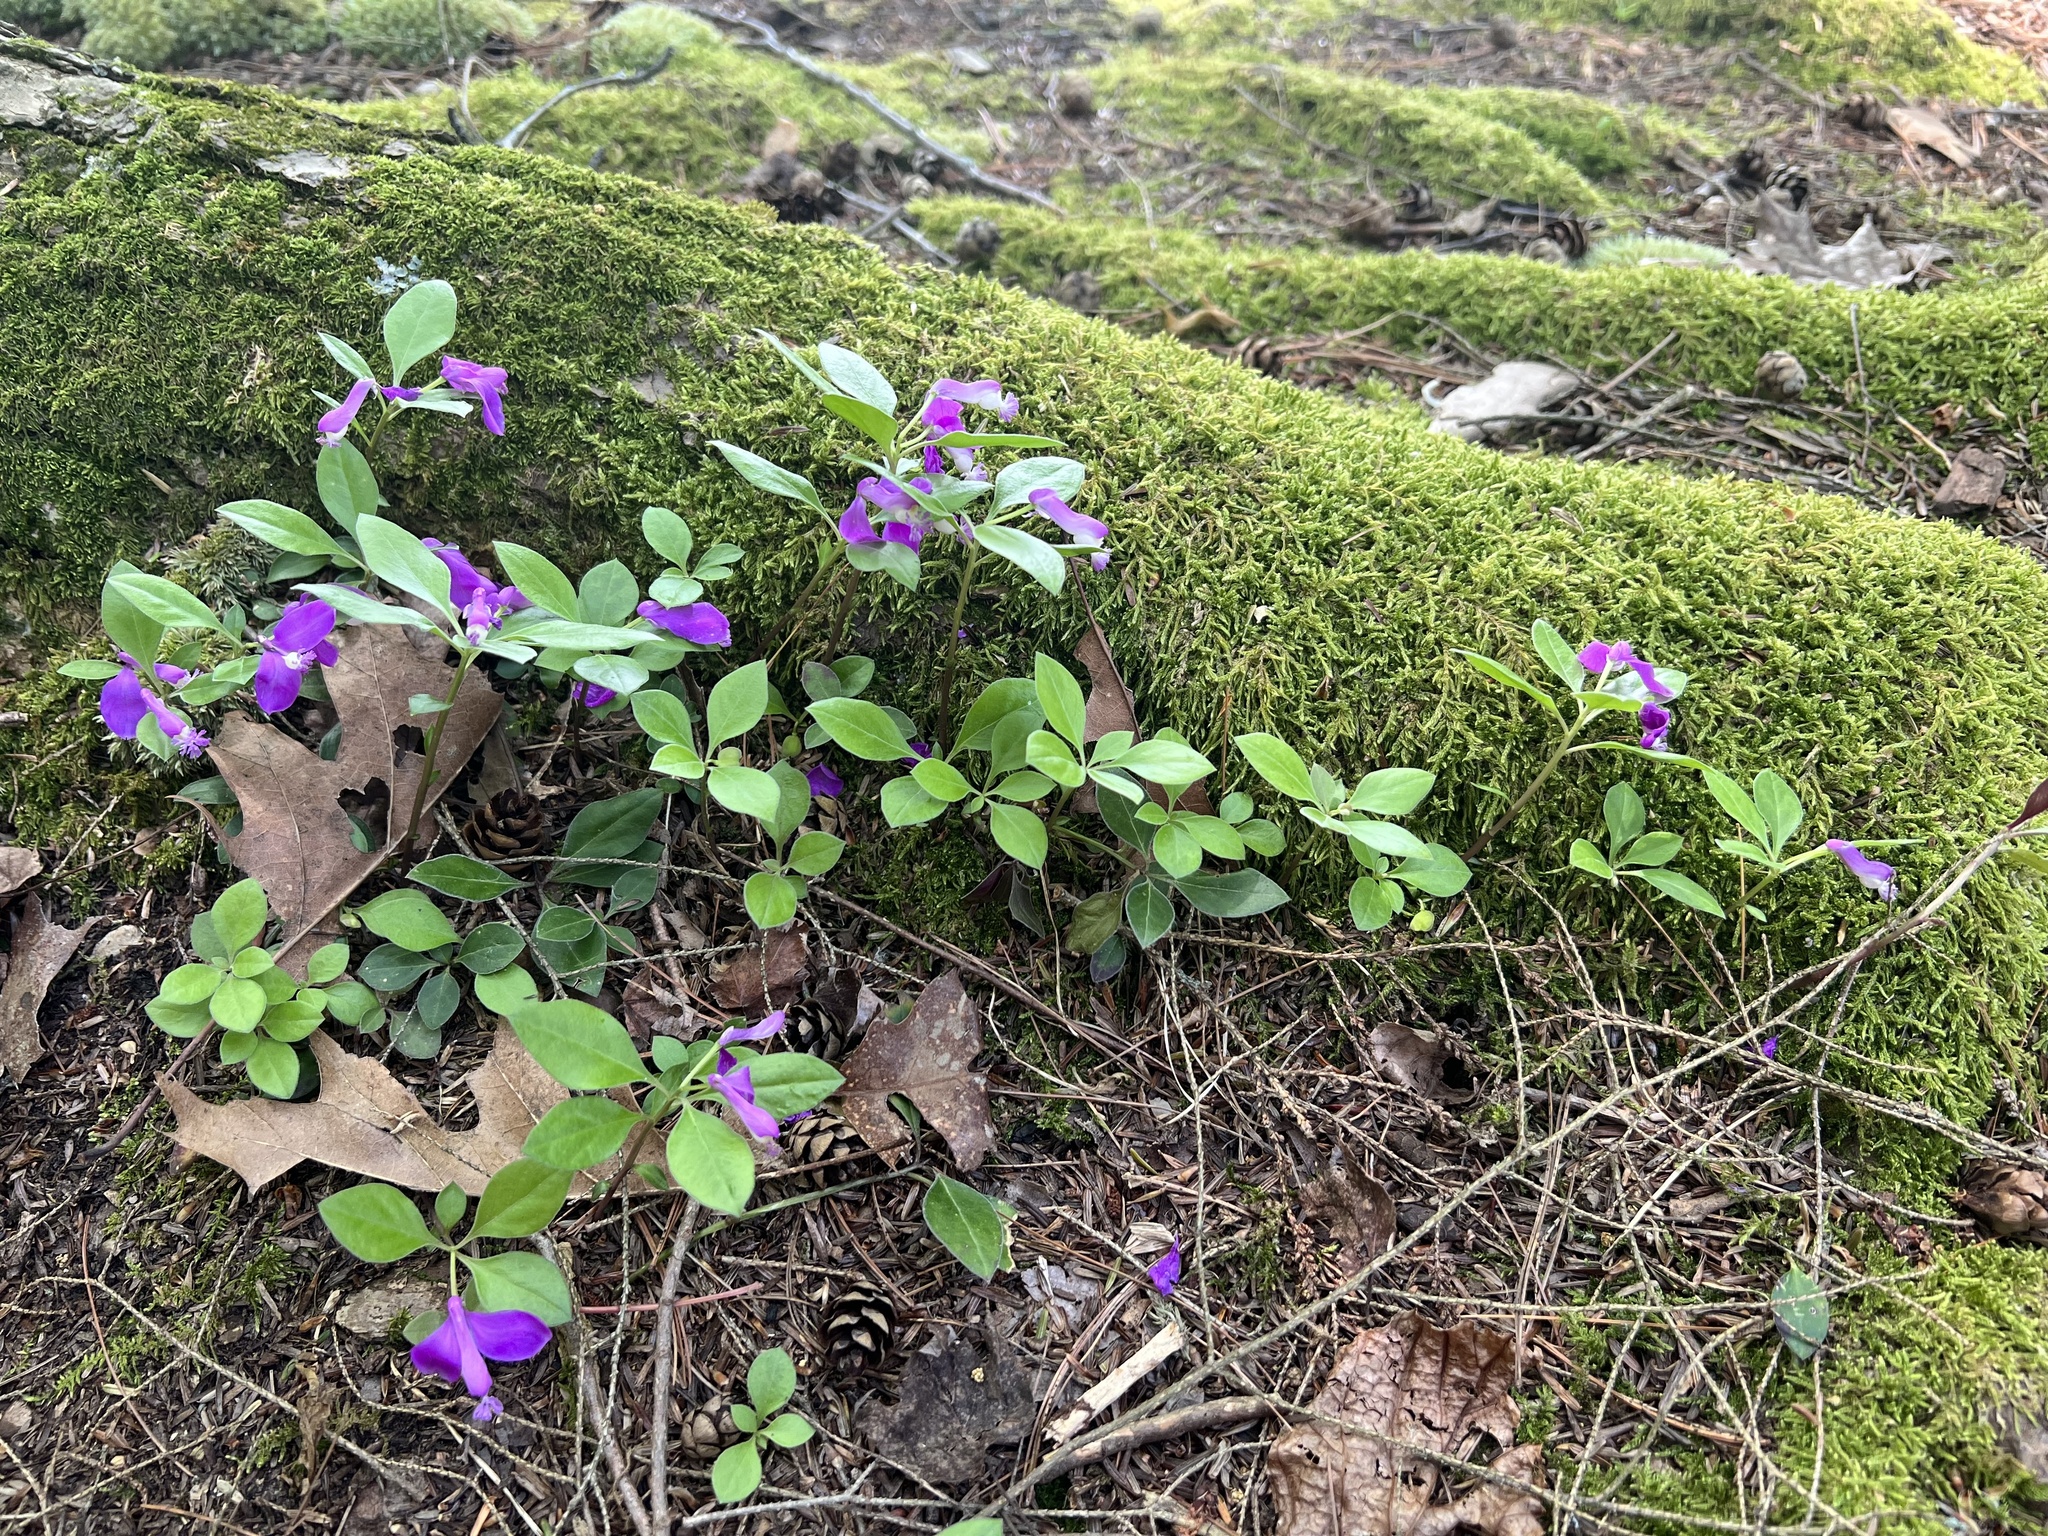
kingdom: Plantae
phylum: Tracheophyta
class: Magnoliopsida
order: Fabales
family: Polygalaceae
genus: Polygaloides
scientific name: Polygaloides paucifolia
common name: Bird-on-the-wing
